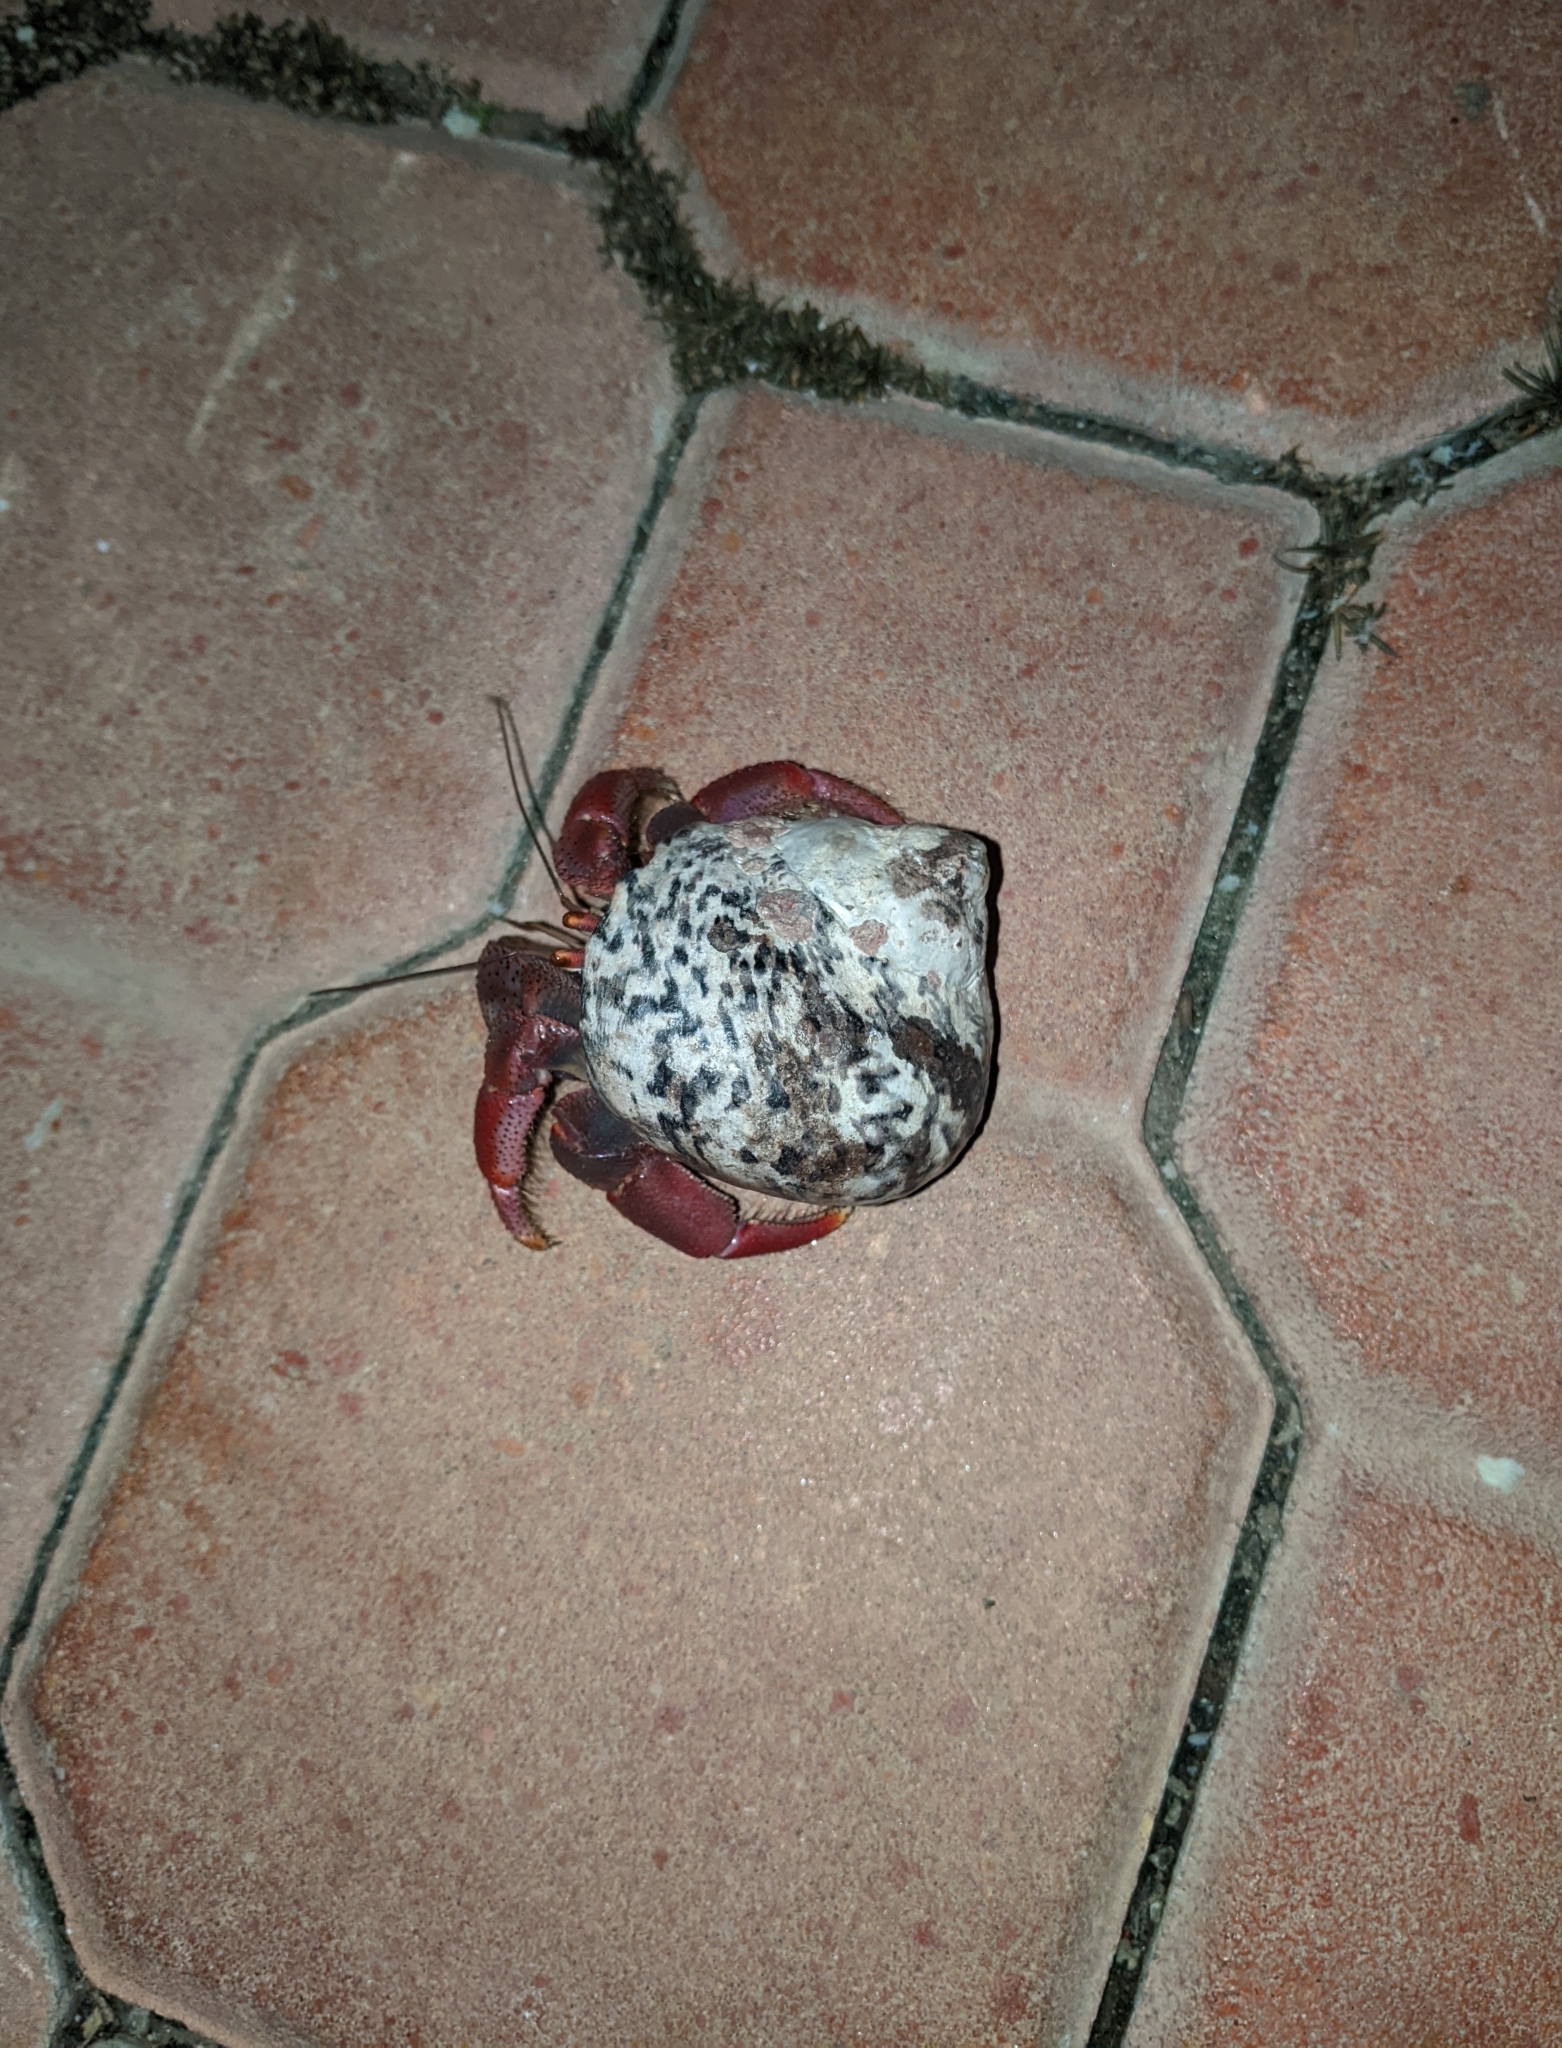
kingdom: Animalia
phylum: Arthropoda
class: Malacostraca
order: Decapoda
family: Coenobitidae
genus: Coenobita
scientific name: Coenobita clypeatus
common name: Caribbean hermit crab
